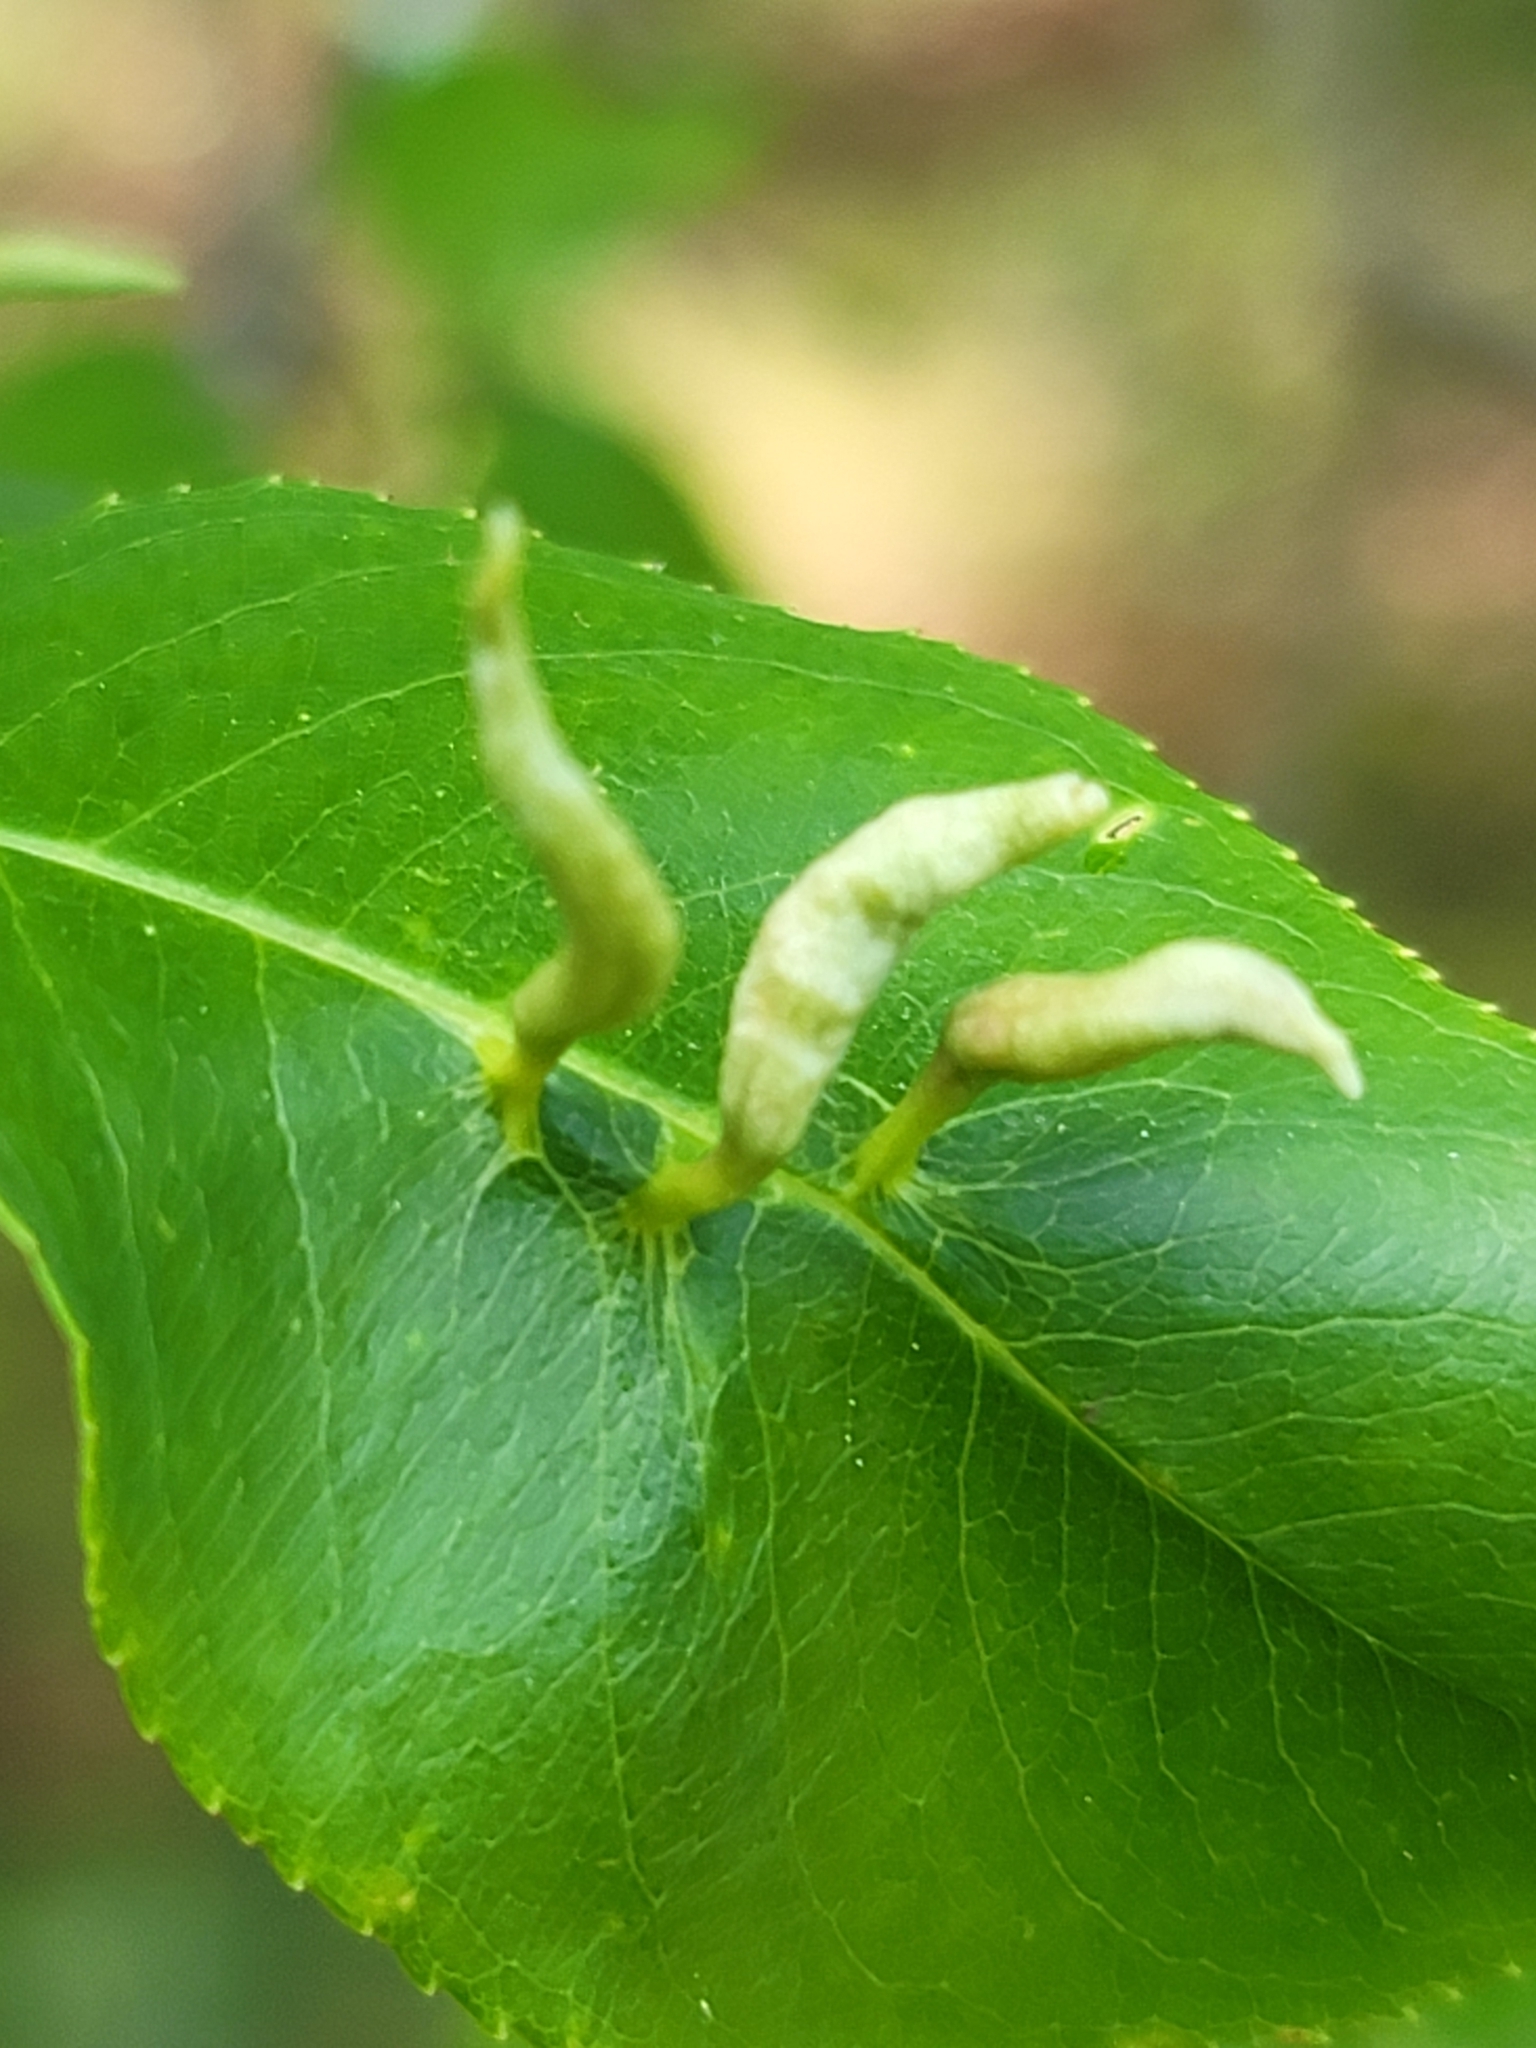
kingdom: Animalia
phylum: Arthropoda
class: Arachnida
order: Trombidiformes
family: Eriophyidae
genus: Eriophyes
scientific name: Eriophyes
